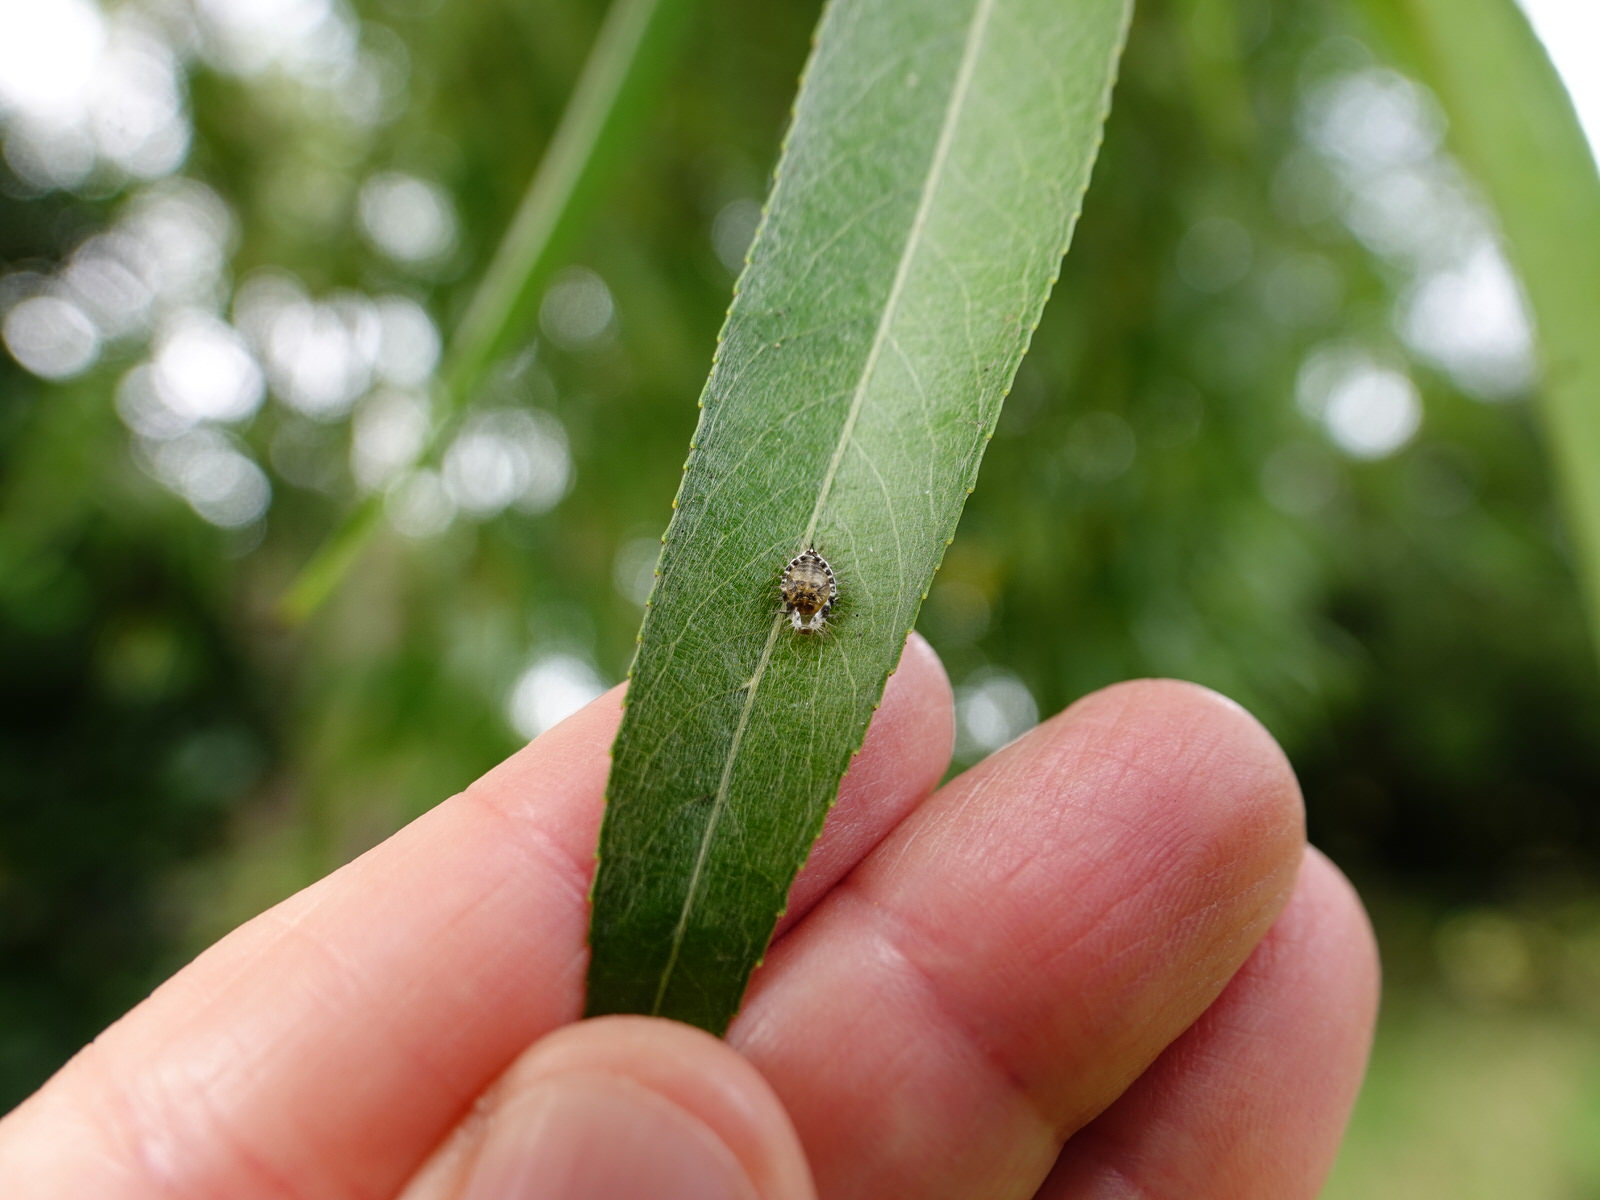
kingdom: Animalia
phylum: Arthropoda
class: Insecta
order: Coleoptera
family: Coccinellidae
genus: Halmus
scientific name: Halmus chalybeus
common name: Steel blue ladybird beetle
